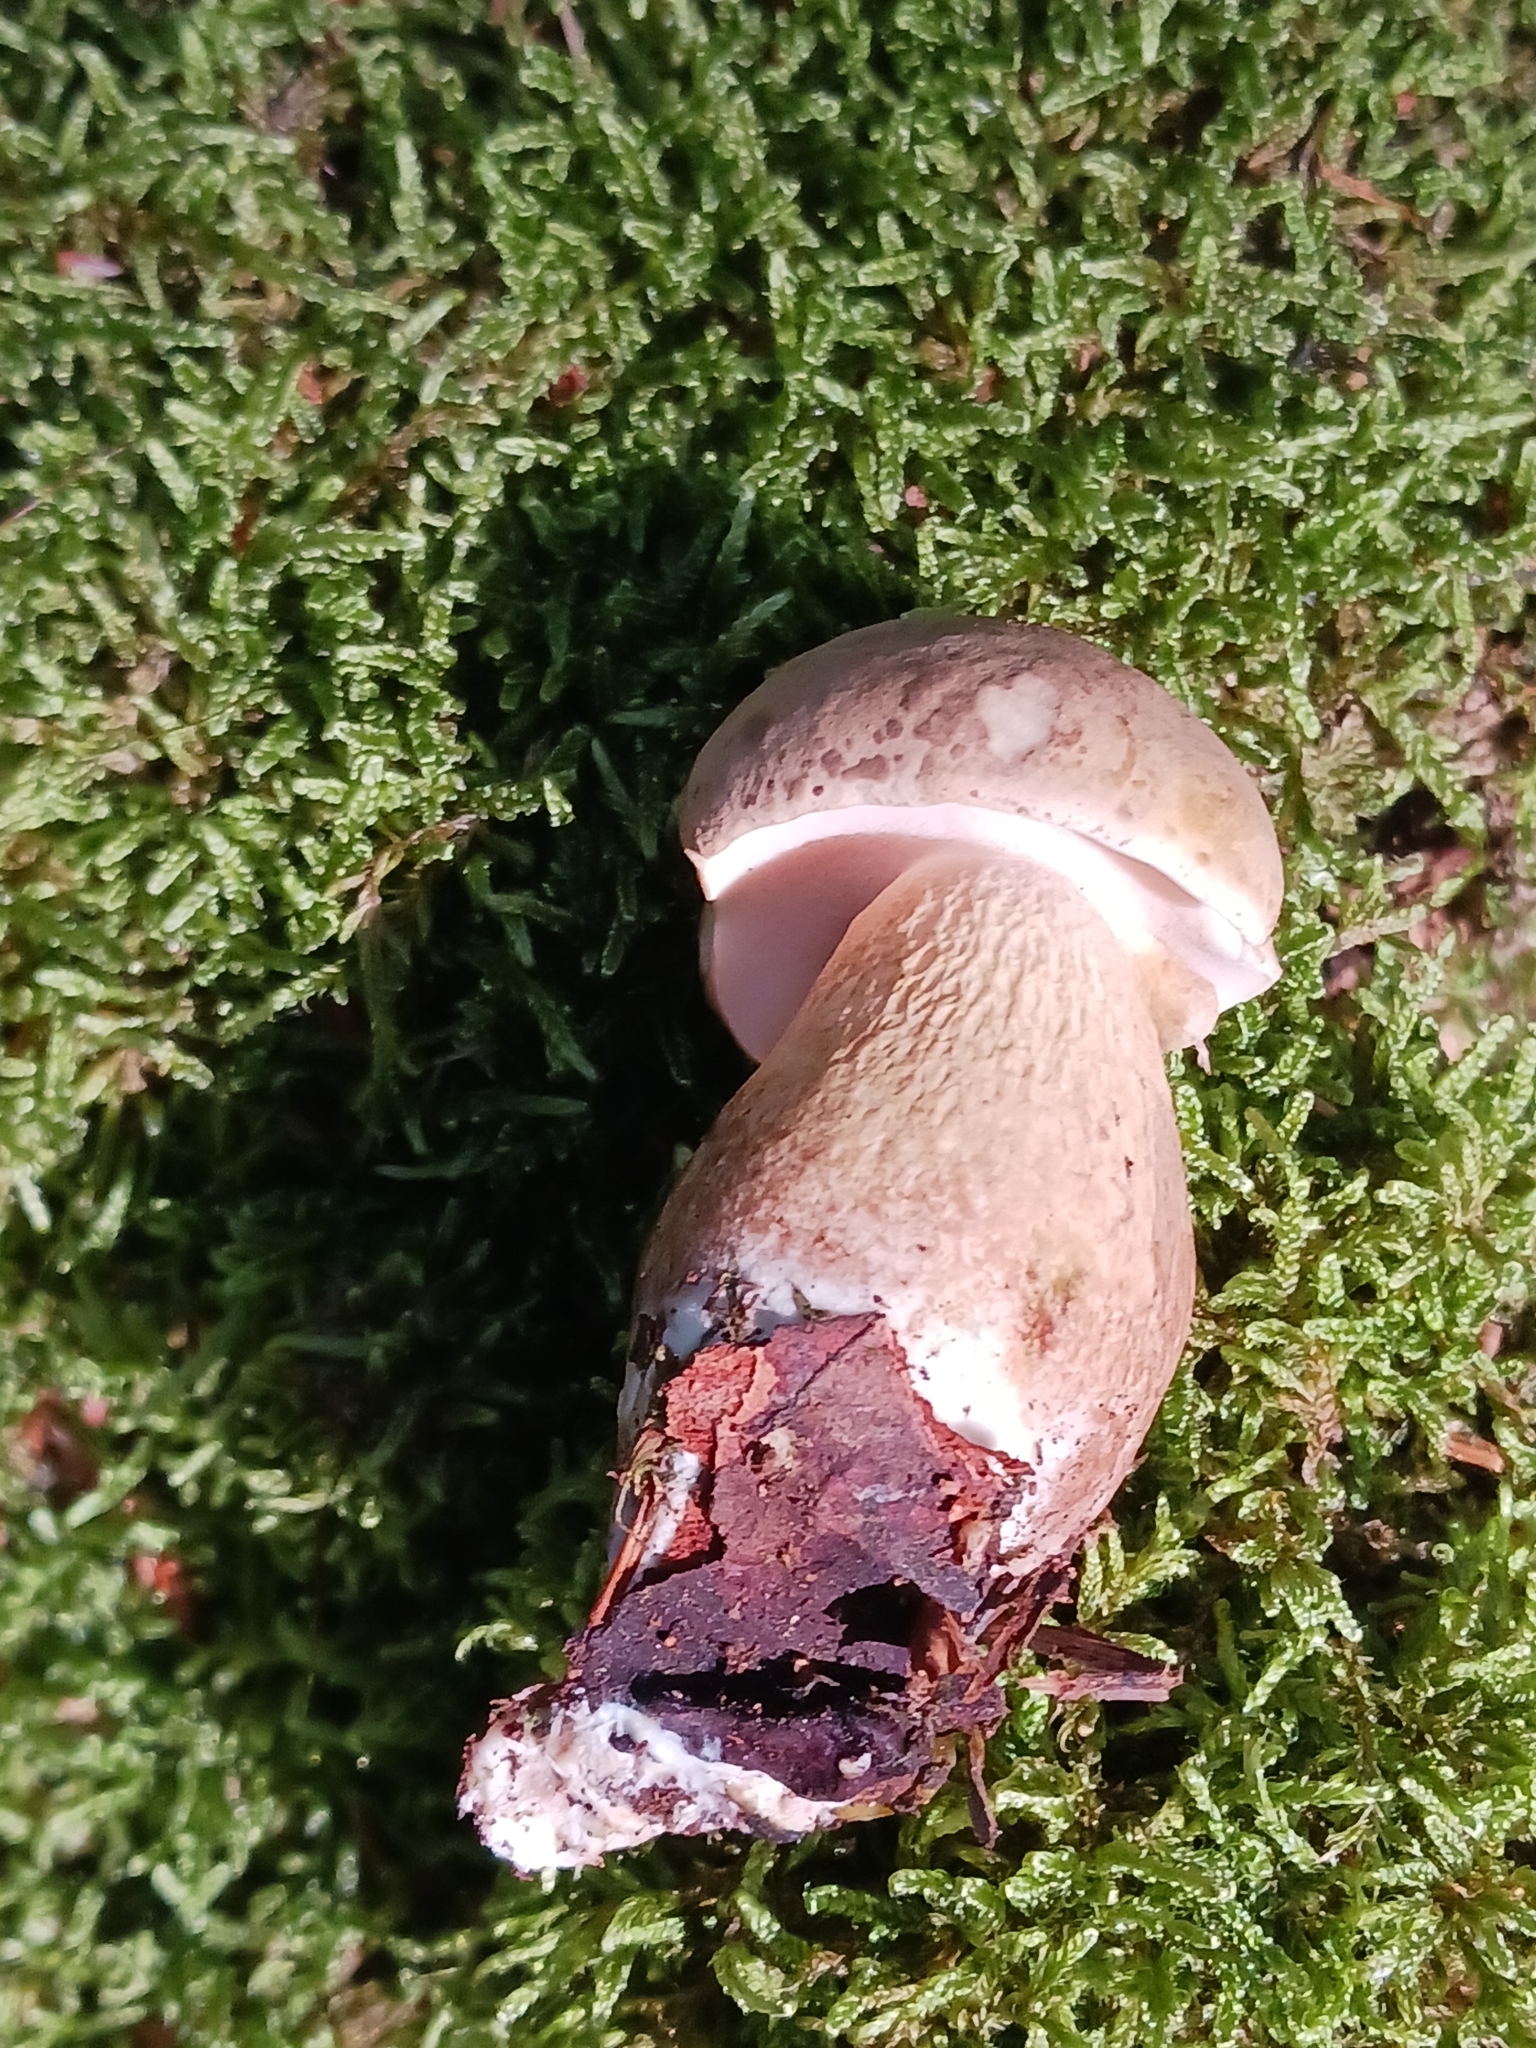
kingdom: Fungi
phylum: Basidiomycota
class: Agaricomycetes
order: Boletales
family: Boletaceae
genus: Tylopilus
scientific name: Tylopilus felleus
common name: Bitter bolete
